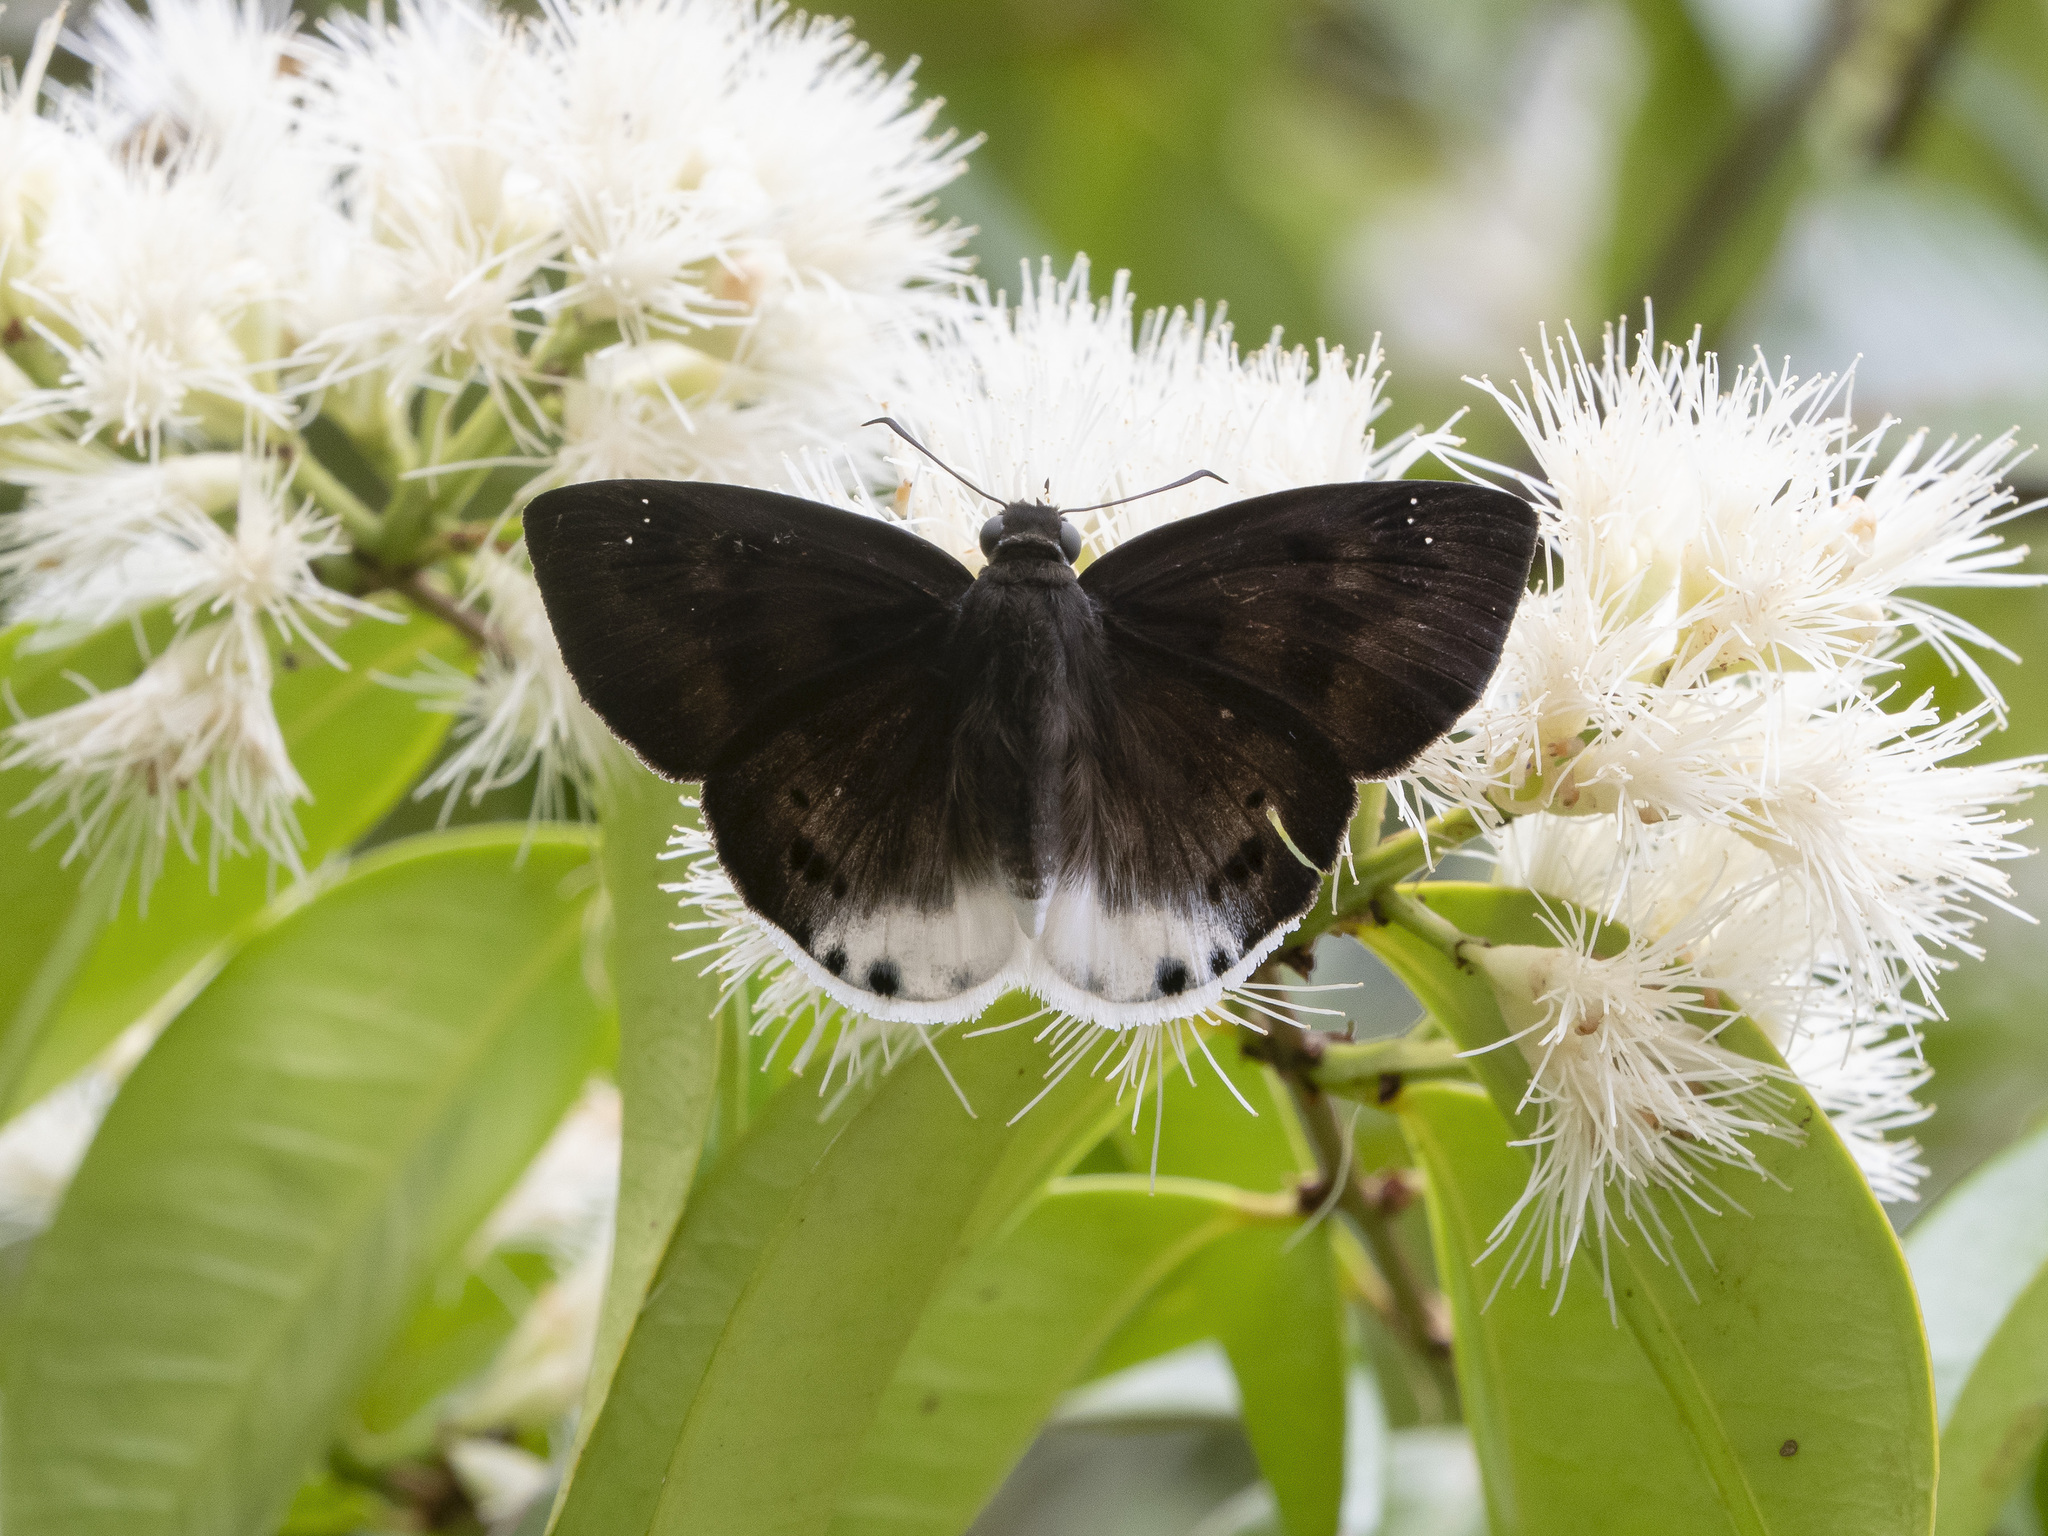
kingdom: Animalia
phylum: Arthropoda
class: Insecta
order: Lepidoptera
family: Hesperiidae
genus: Tagiades
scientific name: Tagiades gana
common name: Suffused snow flat
